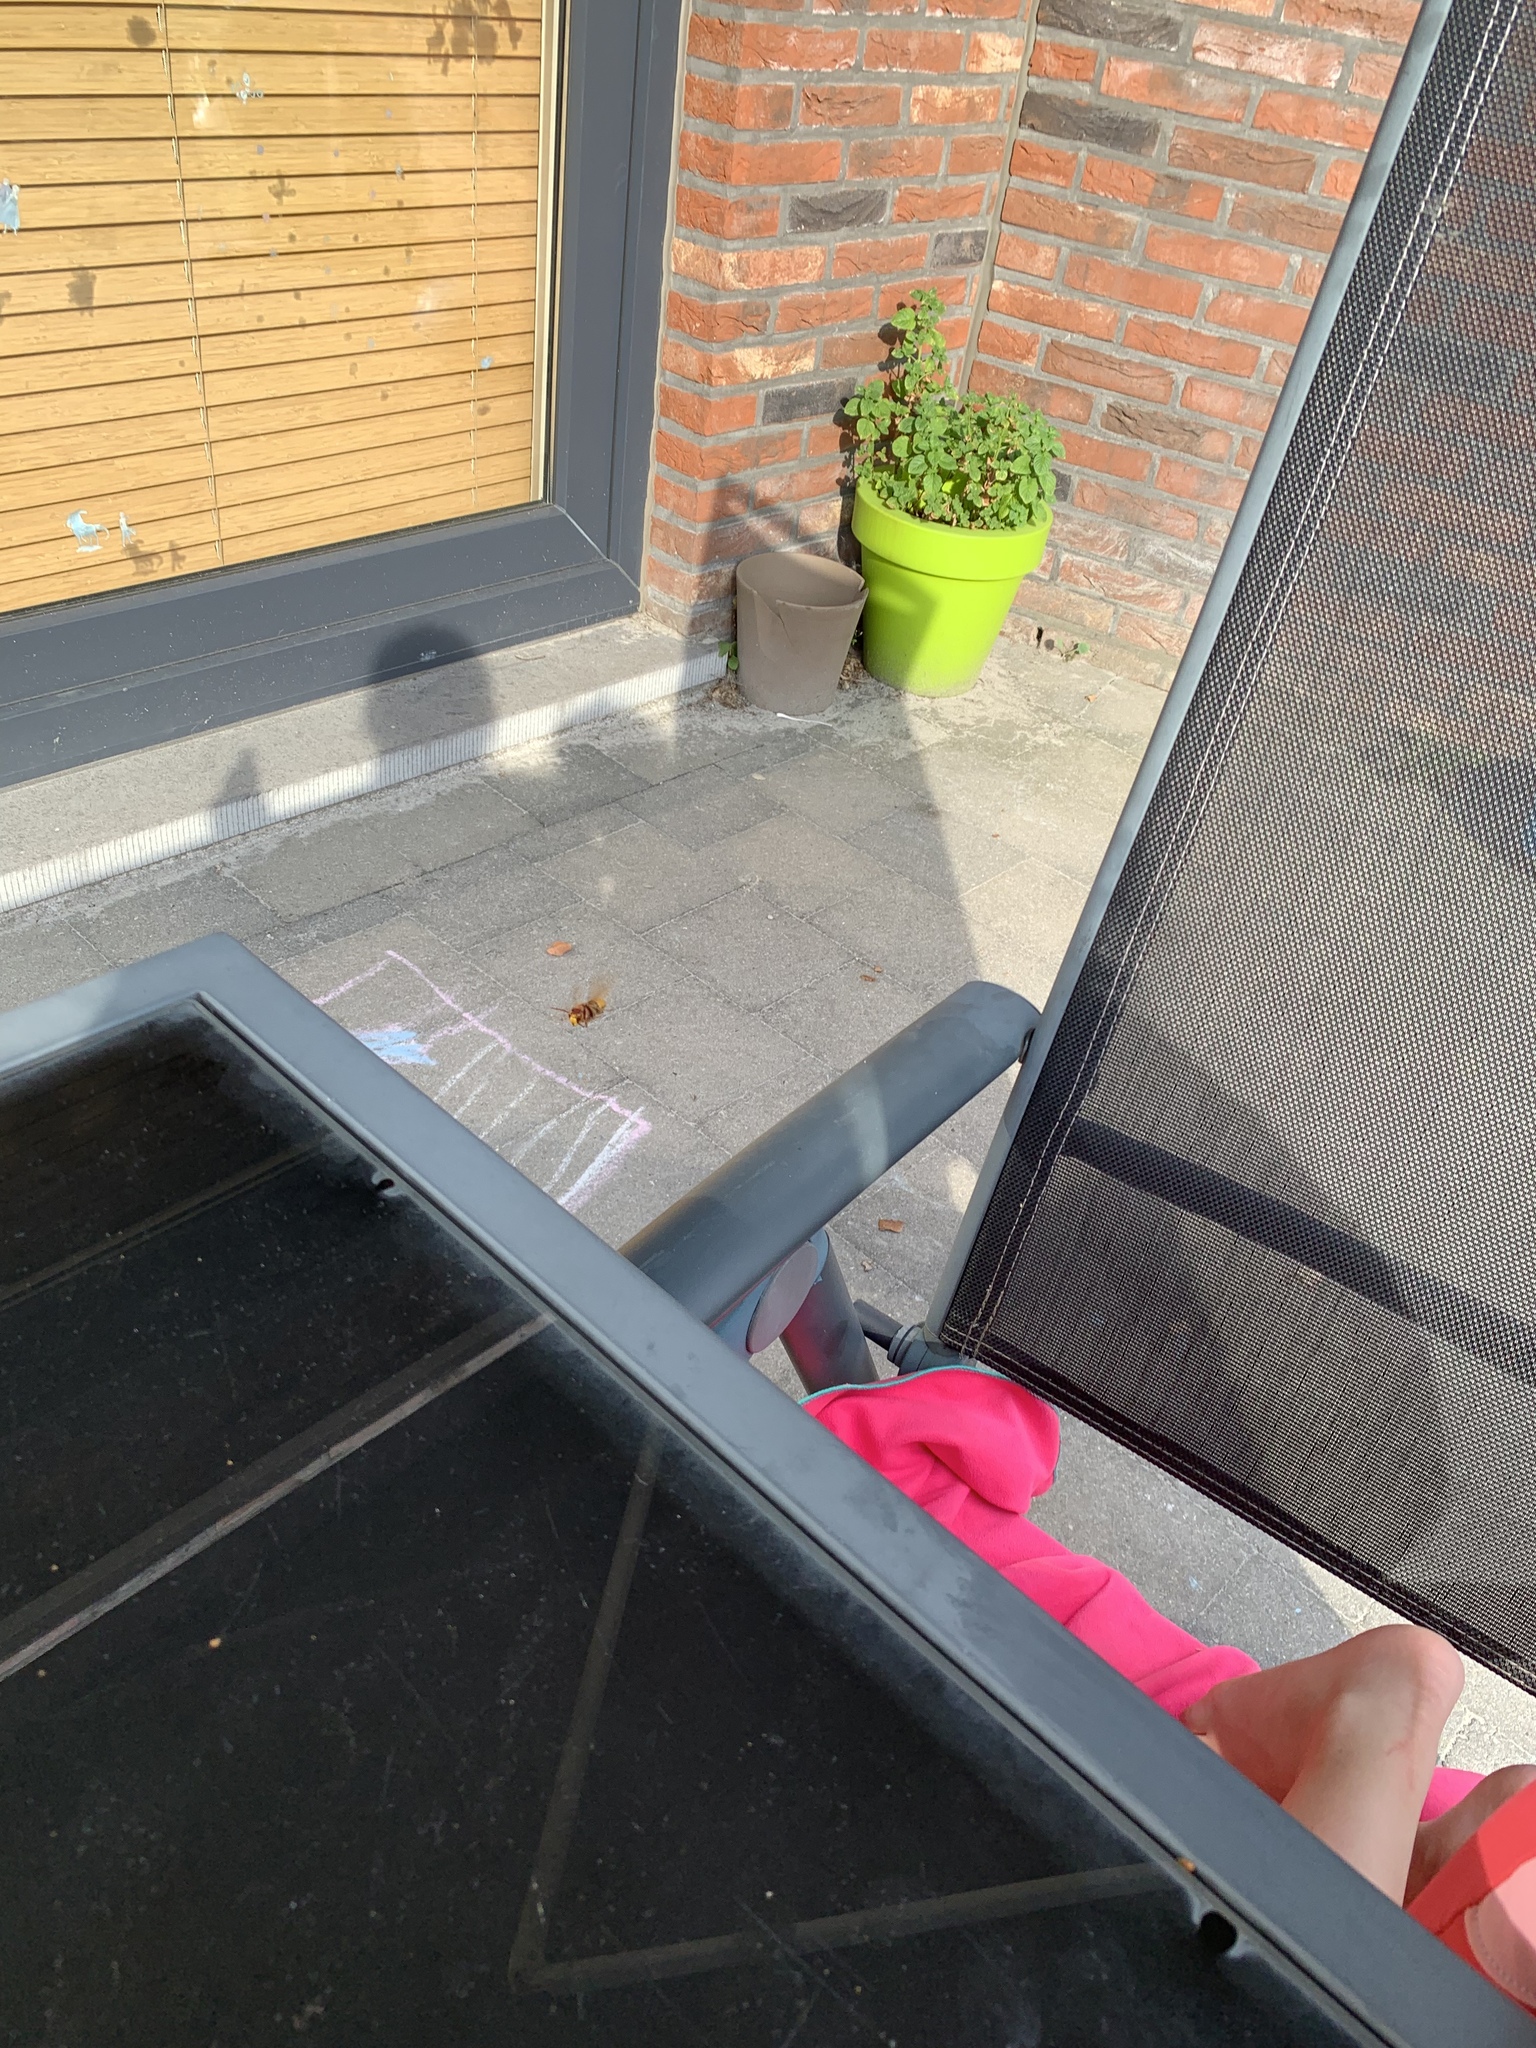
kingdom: Animalia
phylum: Arthropoda
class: Insecta
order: Hymenoptera
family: Vespidae
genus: Vespa
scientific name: Vespa crabro
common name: Hornet
